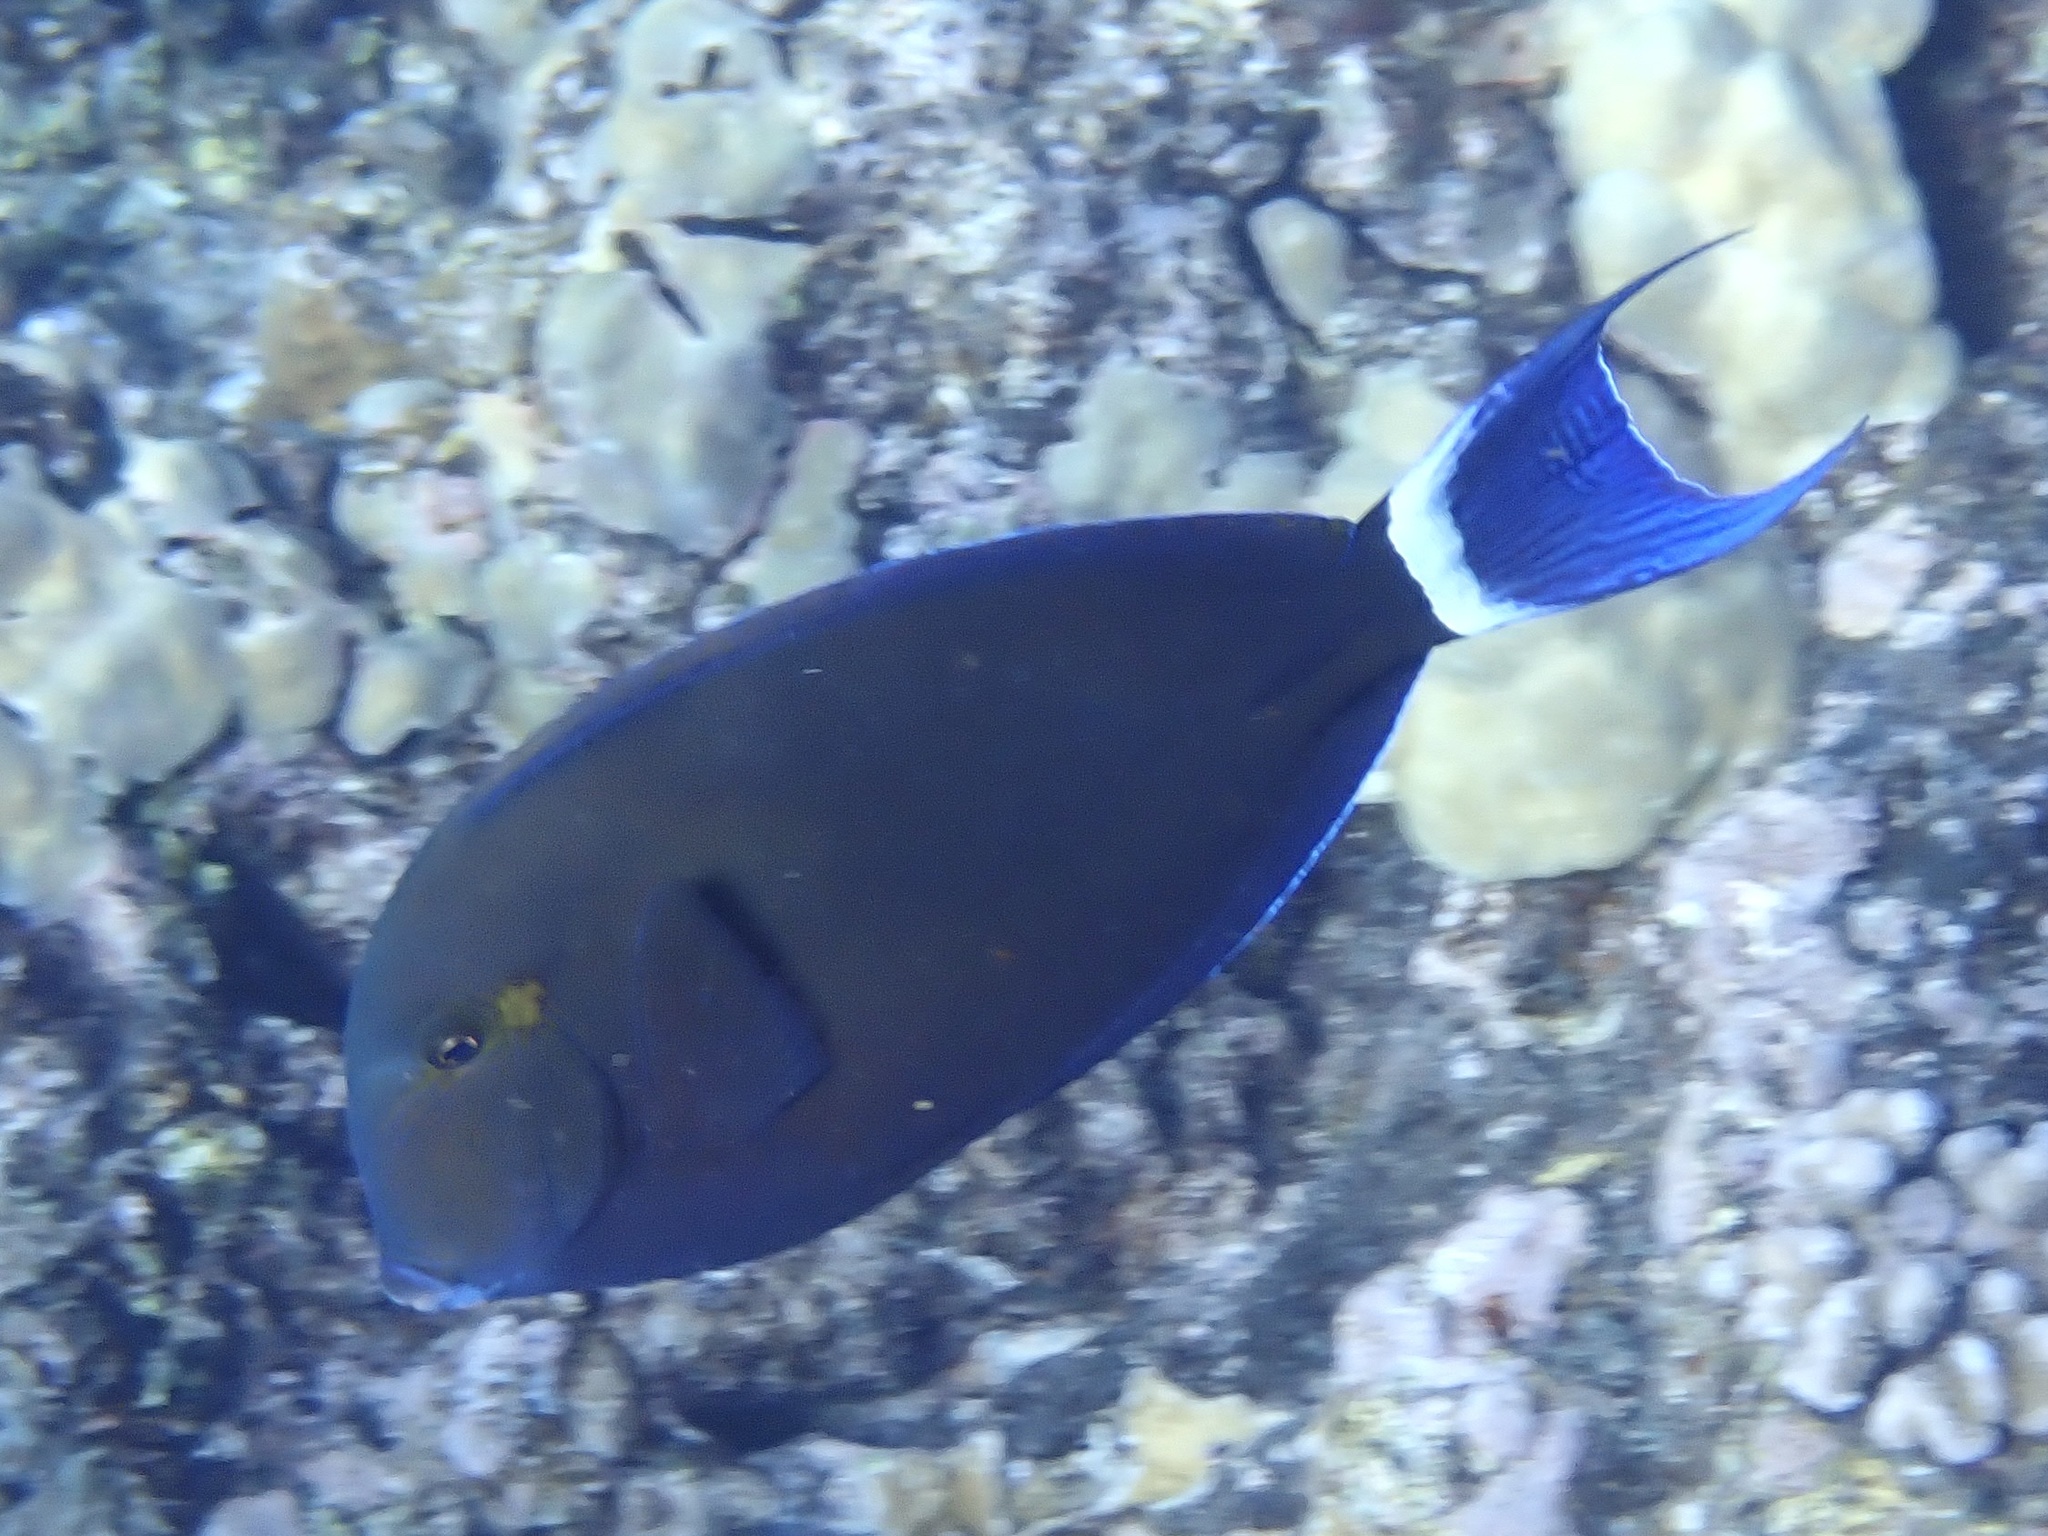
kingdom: Animalia
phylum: Chordata
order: Perciformes
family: Acanthuridae
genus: Acanthurus
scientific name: Acanthurus blochii
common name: Blue-banded pualu
